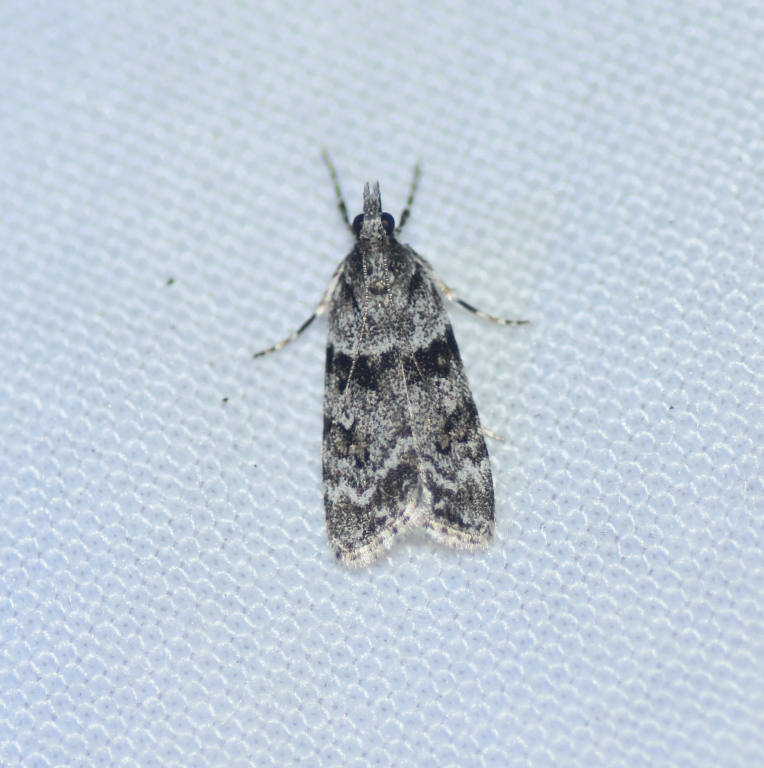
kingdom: Animalia
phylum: Arthropoda
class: Insecta
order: Lepidoptera
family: Crambidae
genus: Scoparia
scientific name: Scoparia biplagialis
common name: Double-striped scoparia moth
